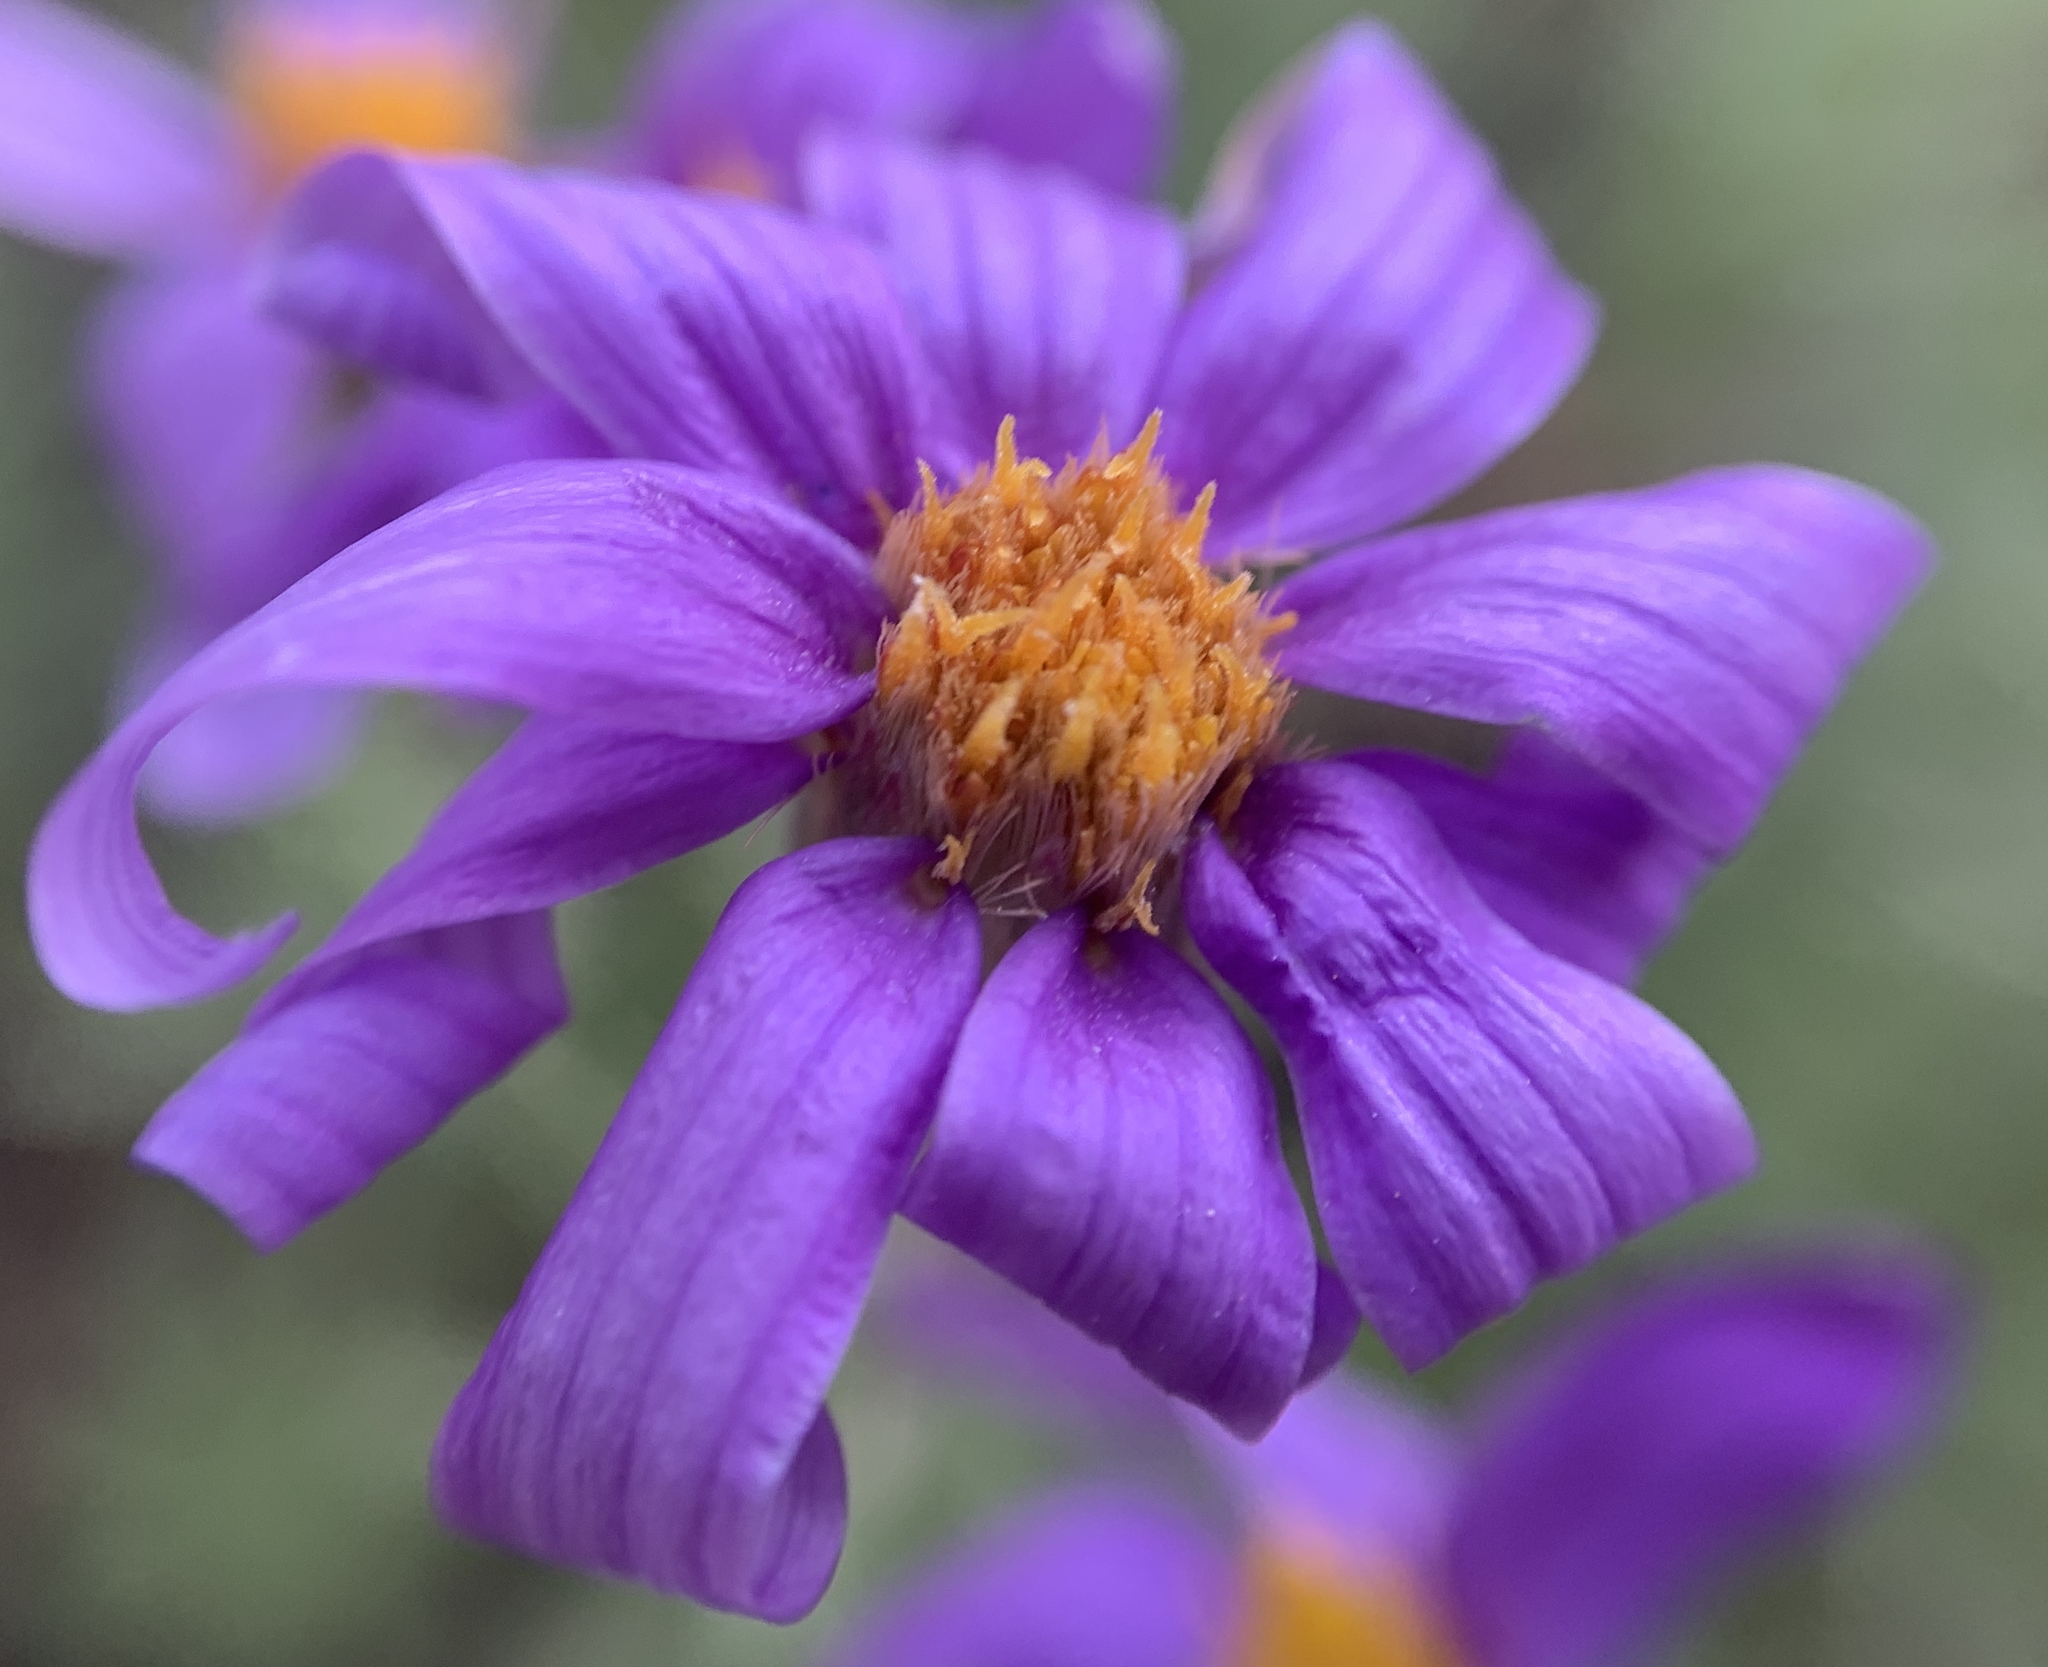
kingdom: Plantae
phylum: Tracheophyta
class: Magnoliopsida
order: Asterales
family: Asteraceae
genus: Ionactis
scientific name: Ionactis alpina
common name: Crag aster
